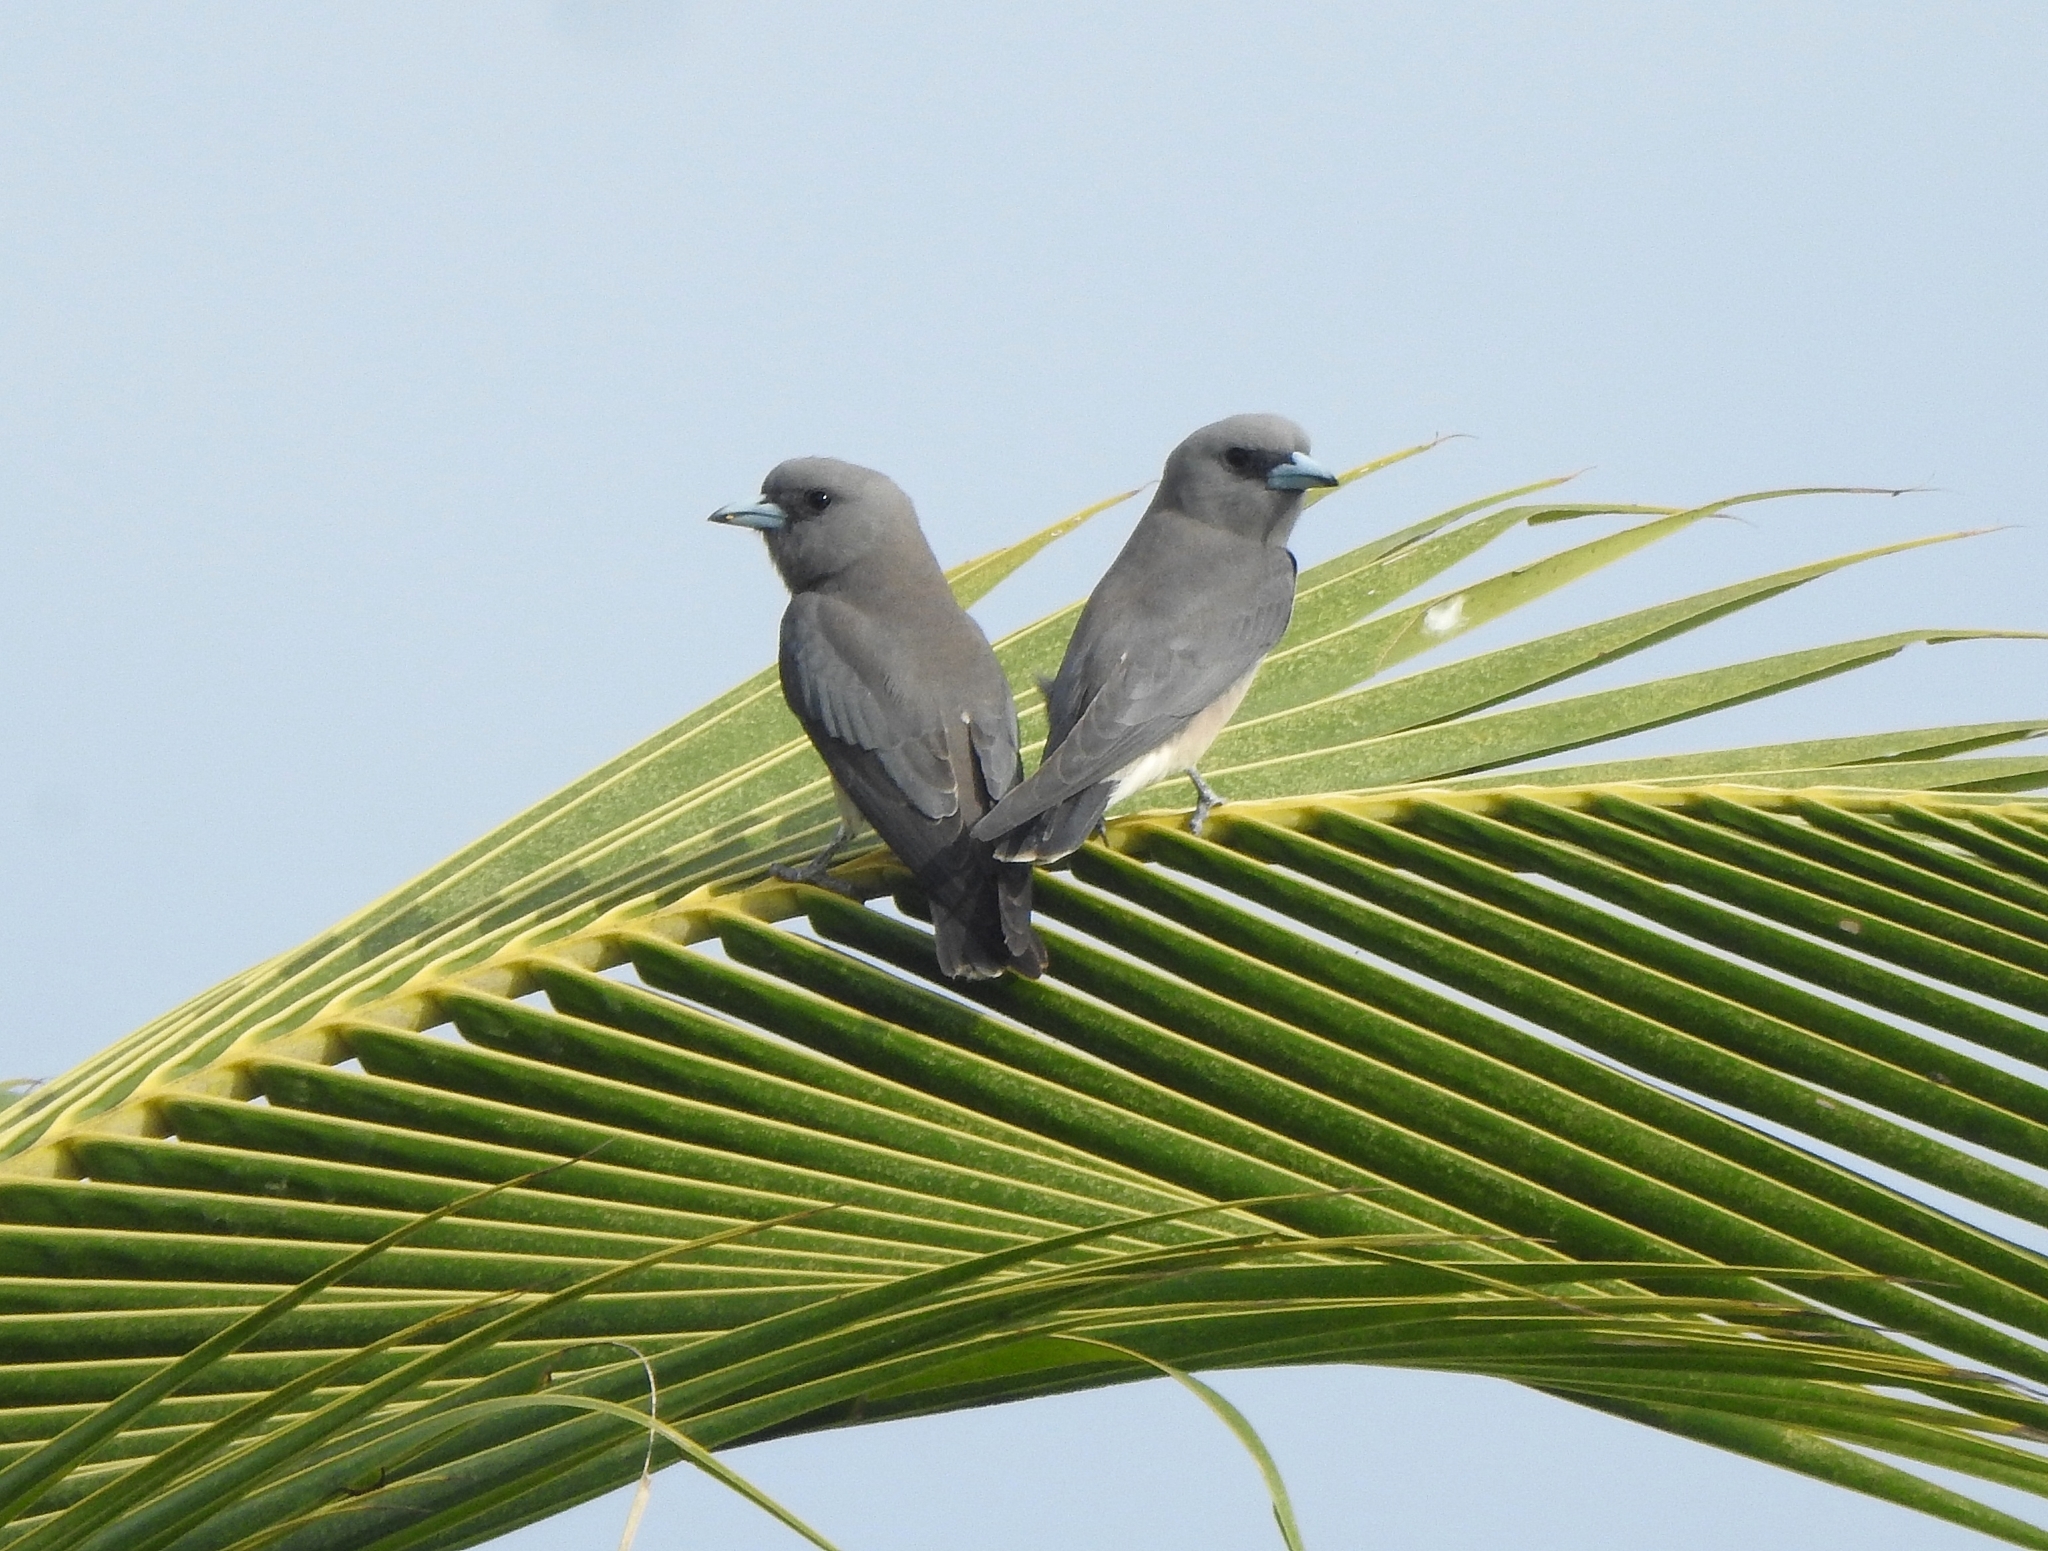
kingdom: Animalia
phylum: Chordata
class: Aves
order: Passeriformes
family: Artamidae
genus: Artamus
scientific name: Artamus fuscus
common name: Ashy woodswallow
